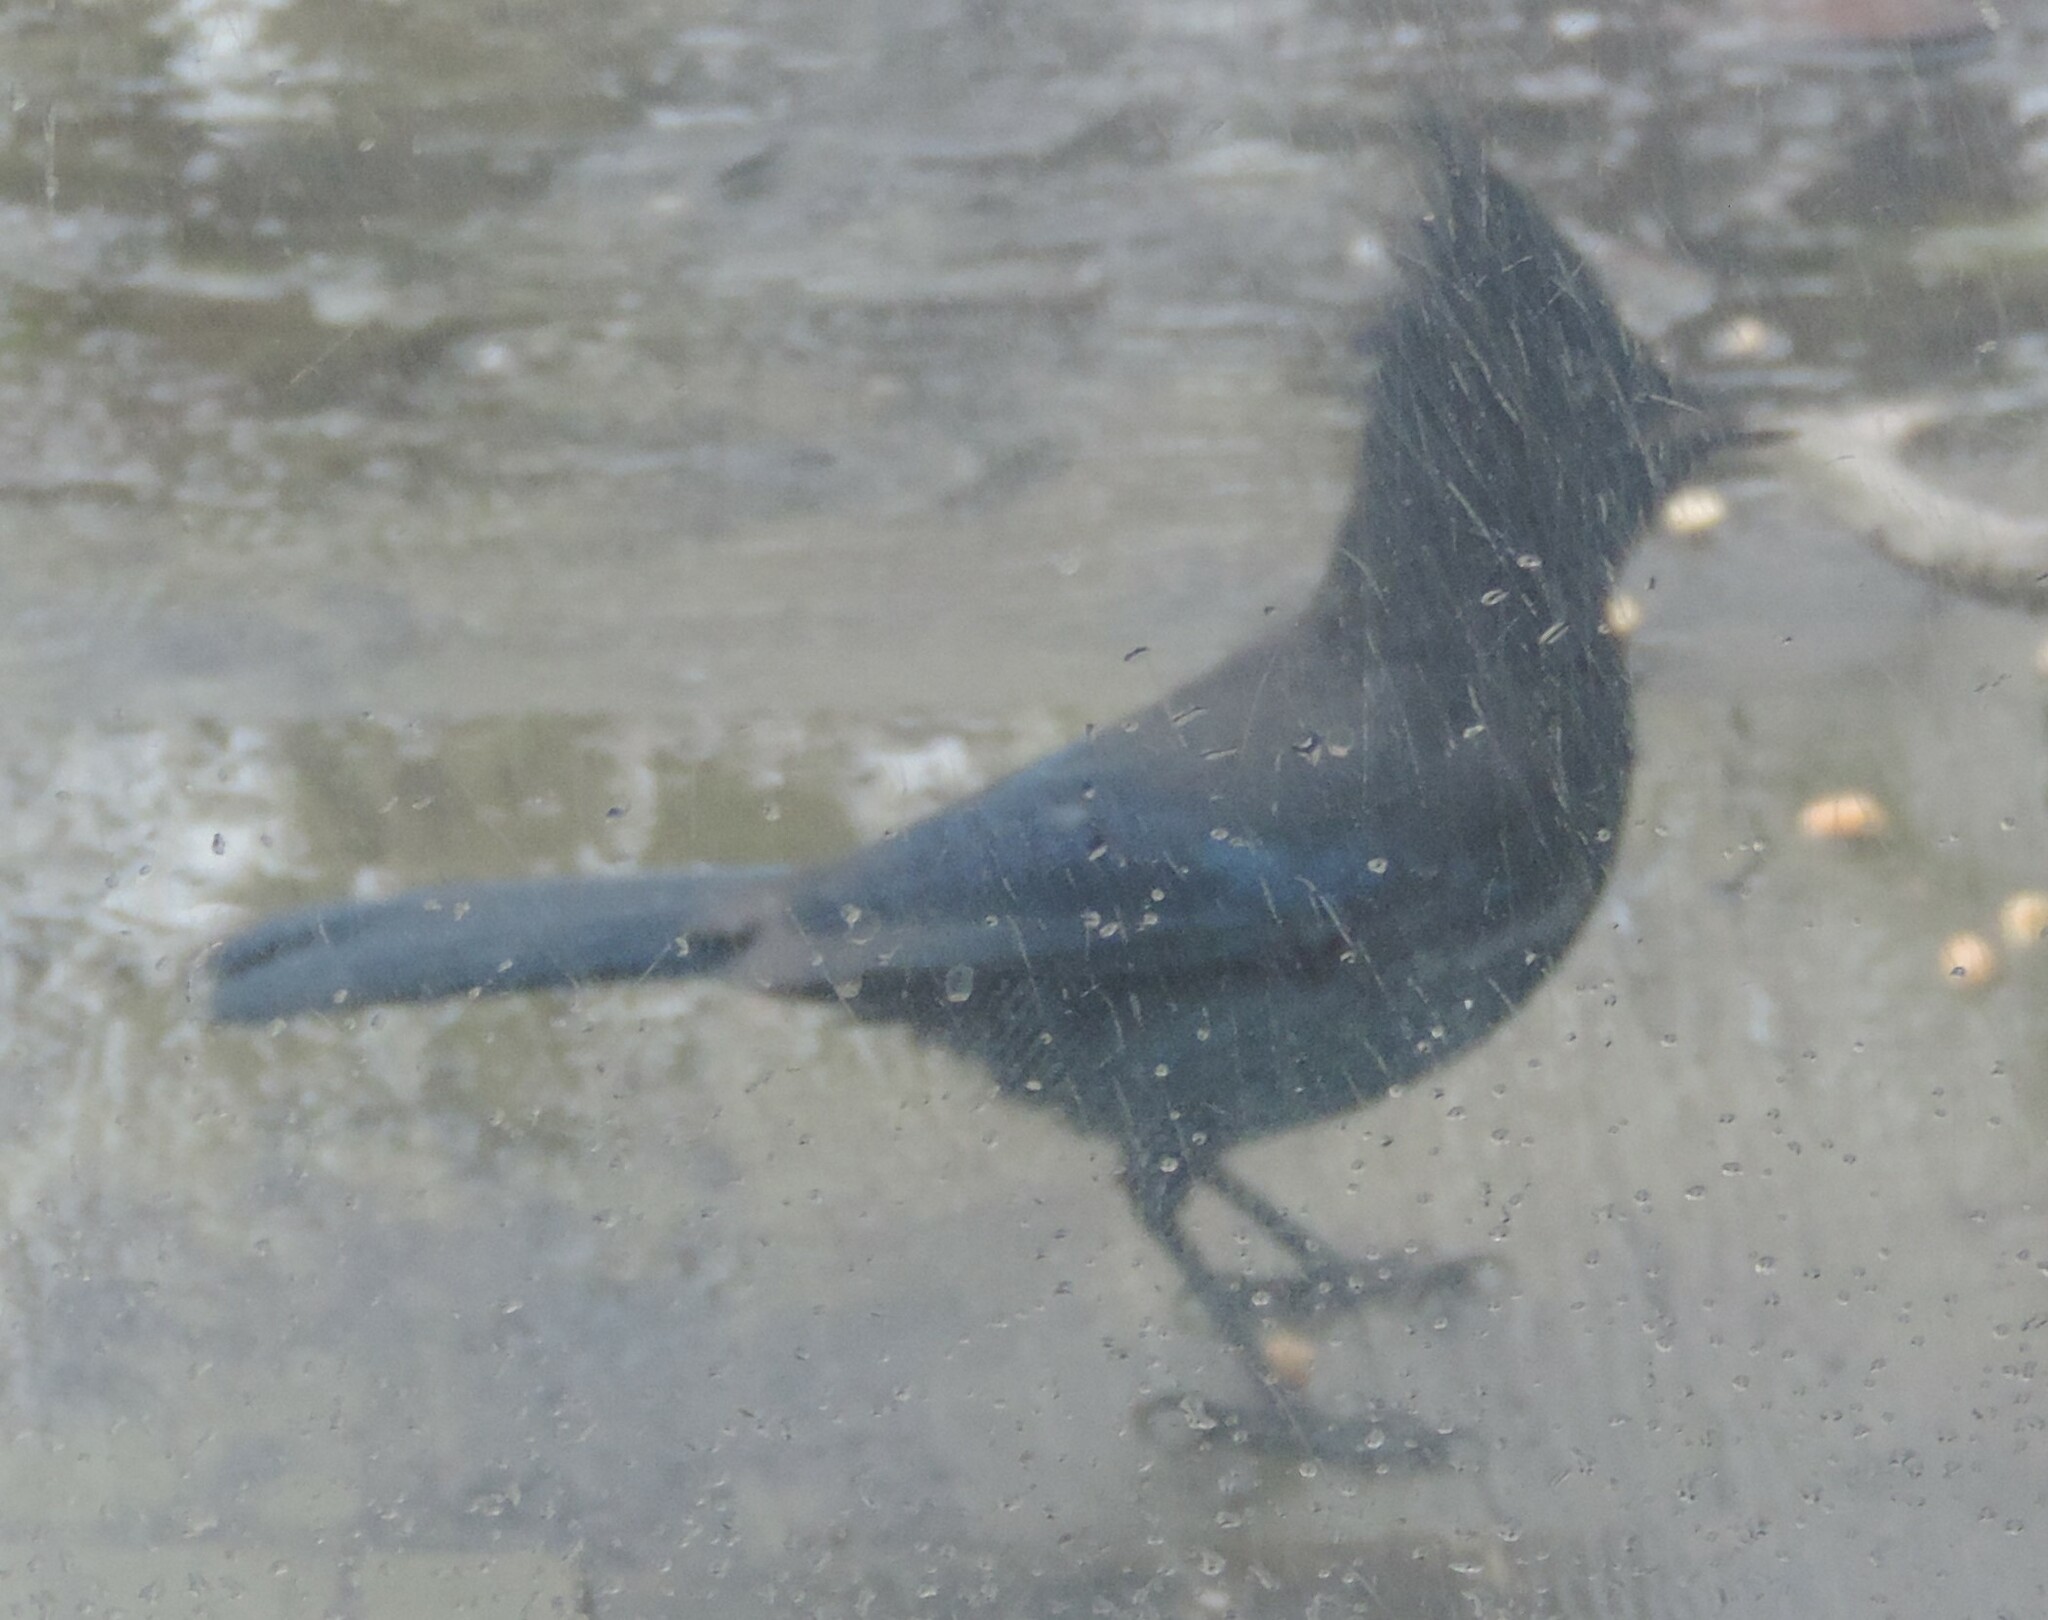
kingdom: Animalia
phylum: Chordata
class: Aves
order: Passeriformes
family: Corvidae
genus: Cyanocitta
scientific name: Cyanocitta stelleri
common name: Steller's jay
